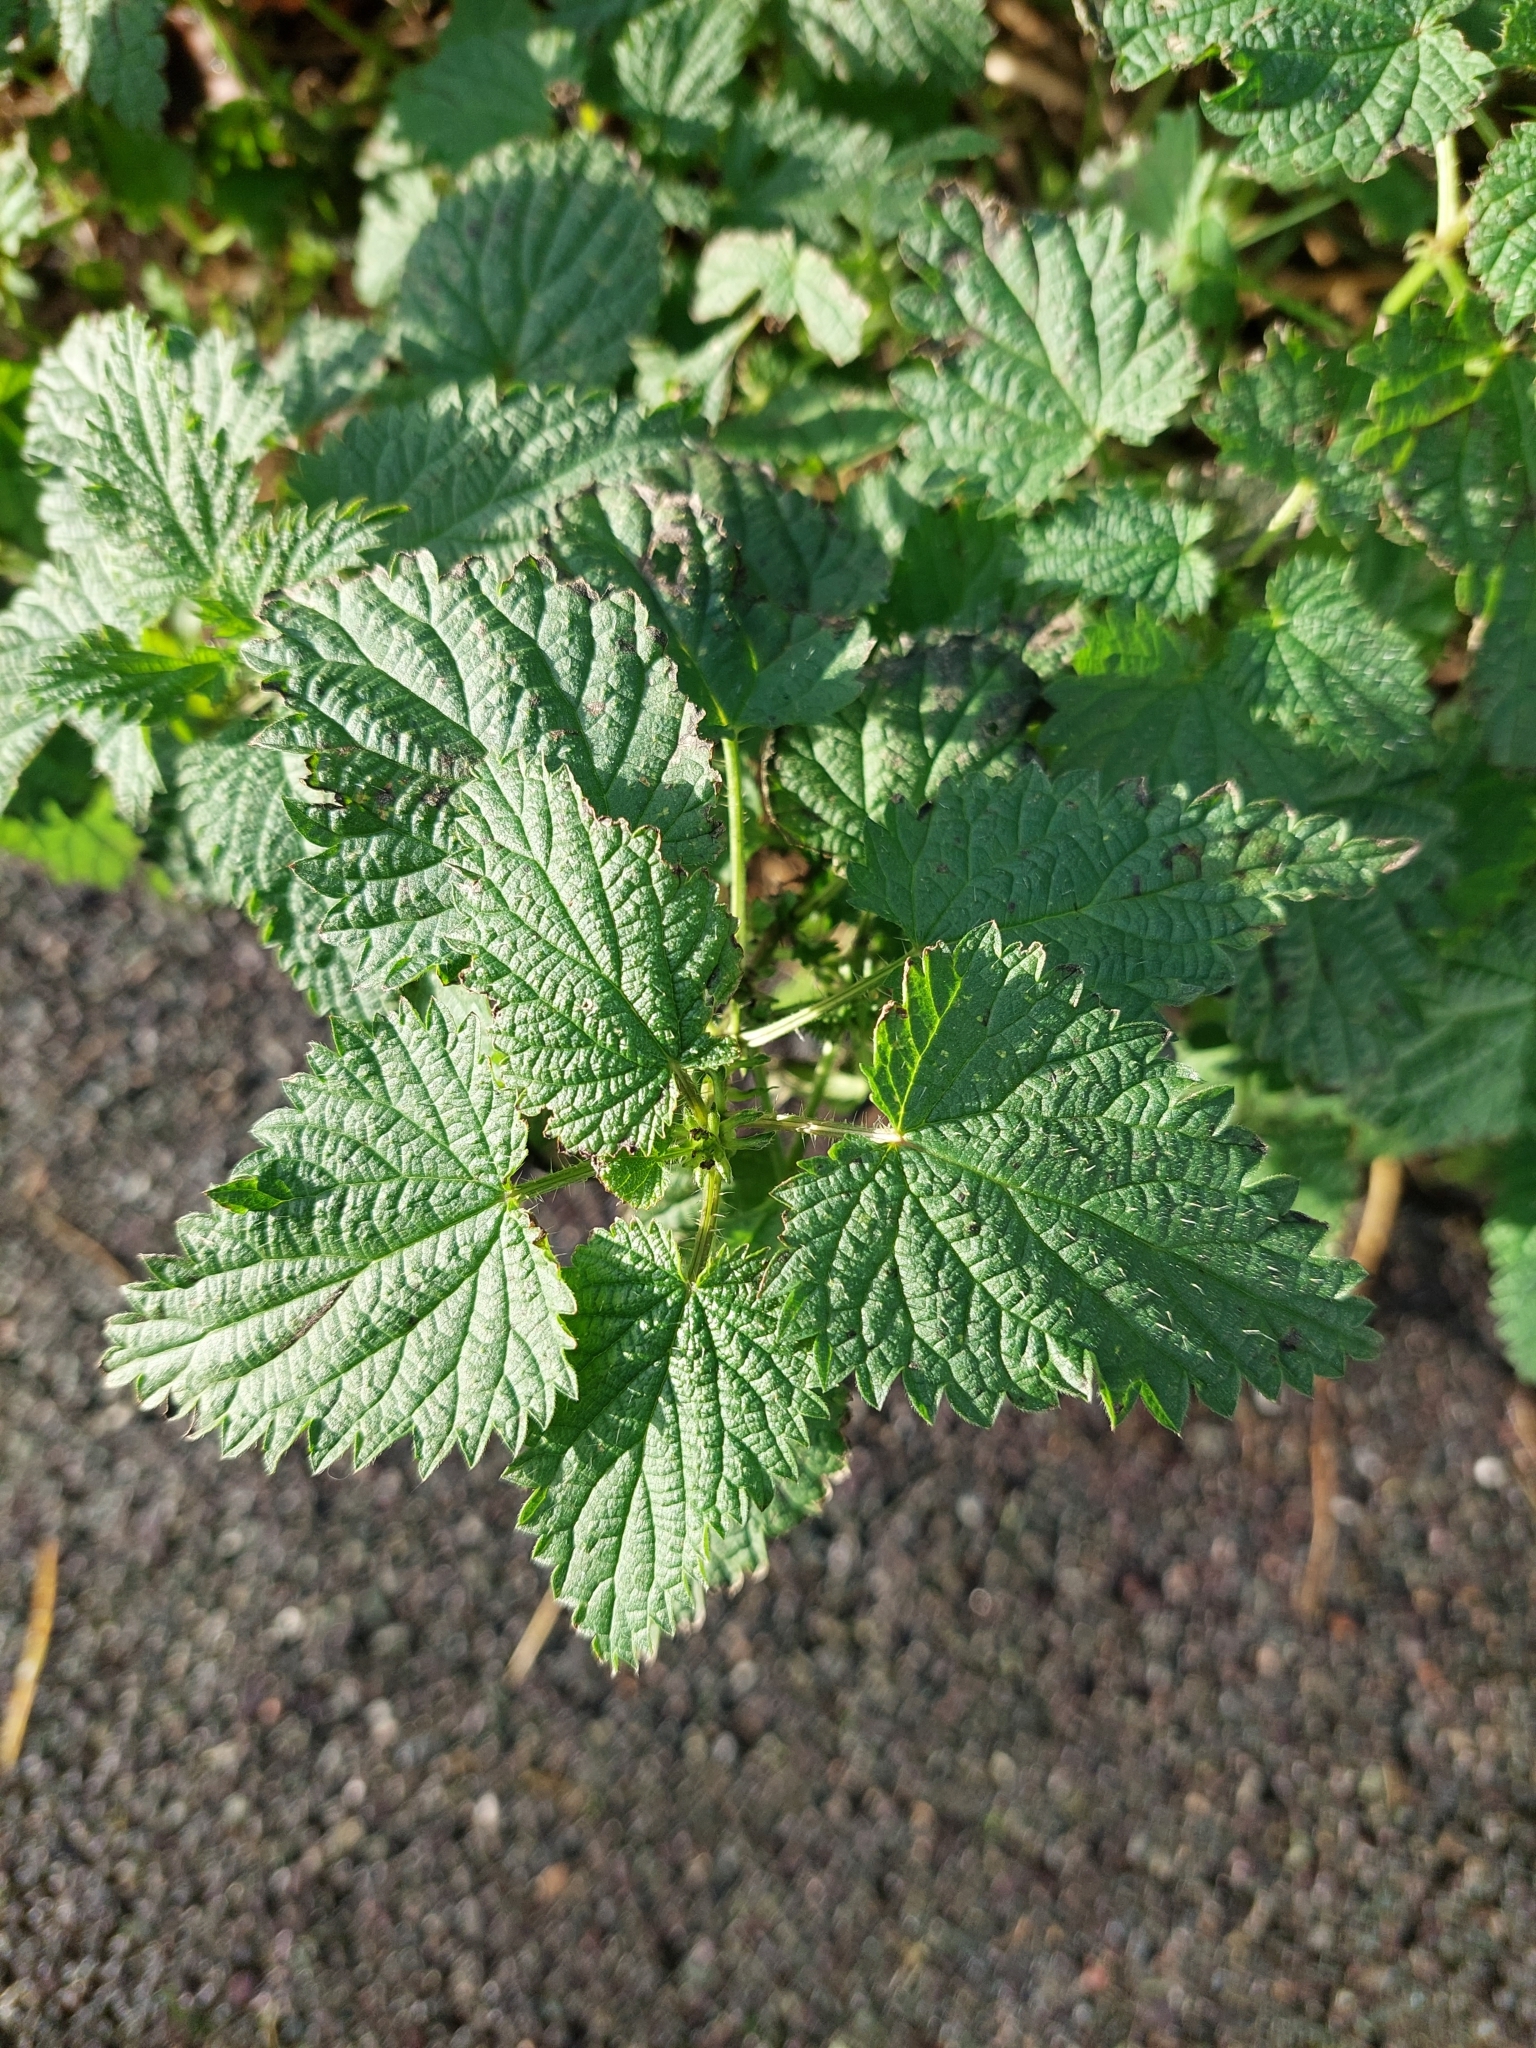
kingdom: Plantae
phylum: Tracheophyta
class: Magnoliopsida
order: Rosales
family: Urticaceae
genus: Urtica
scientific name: Urtica dioica
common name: Common nettle
